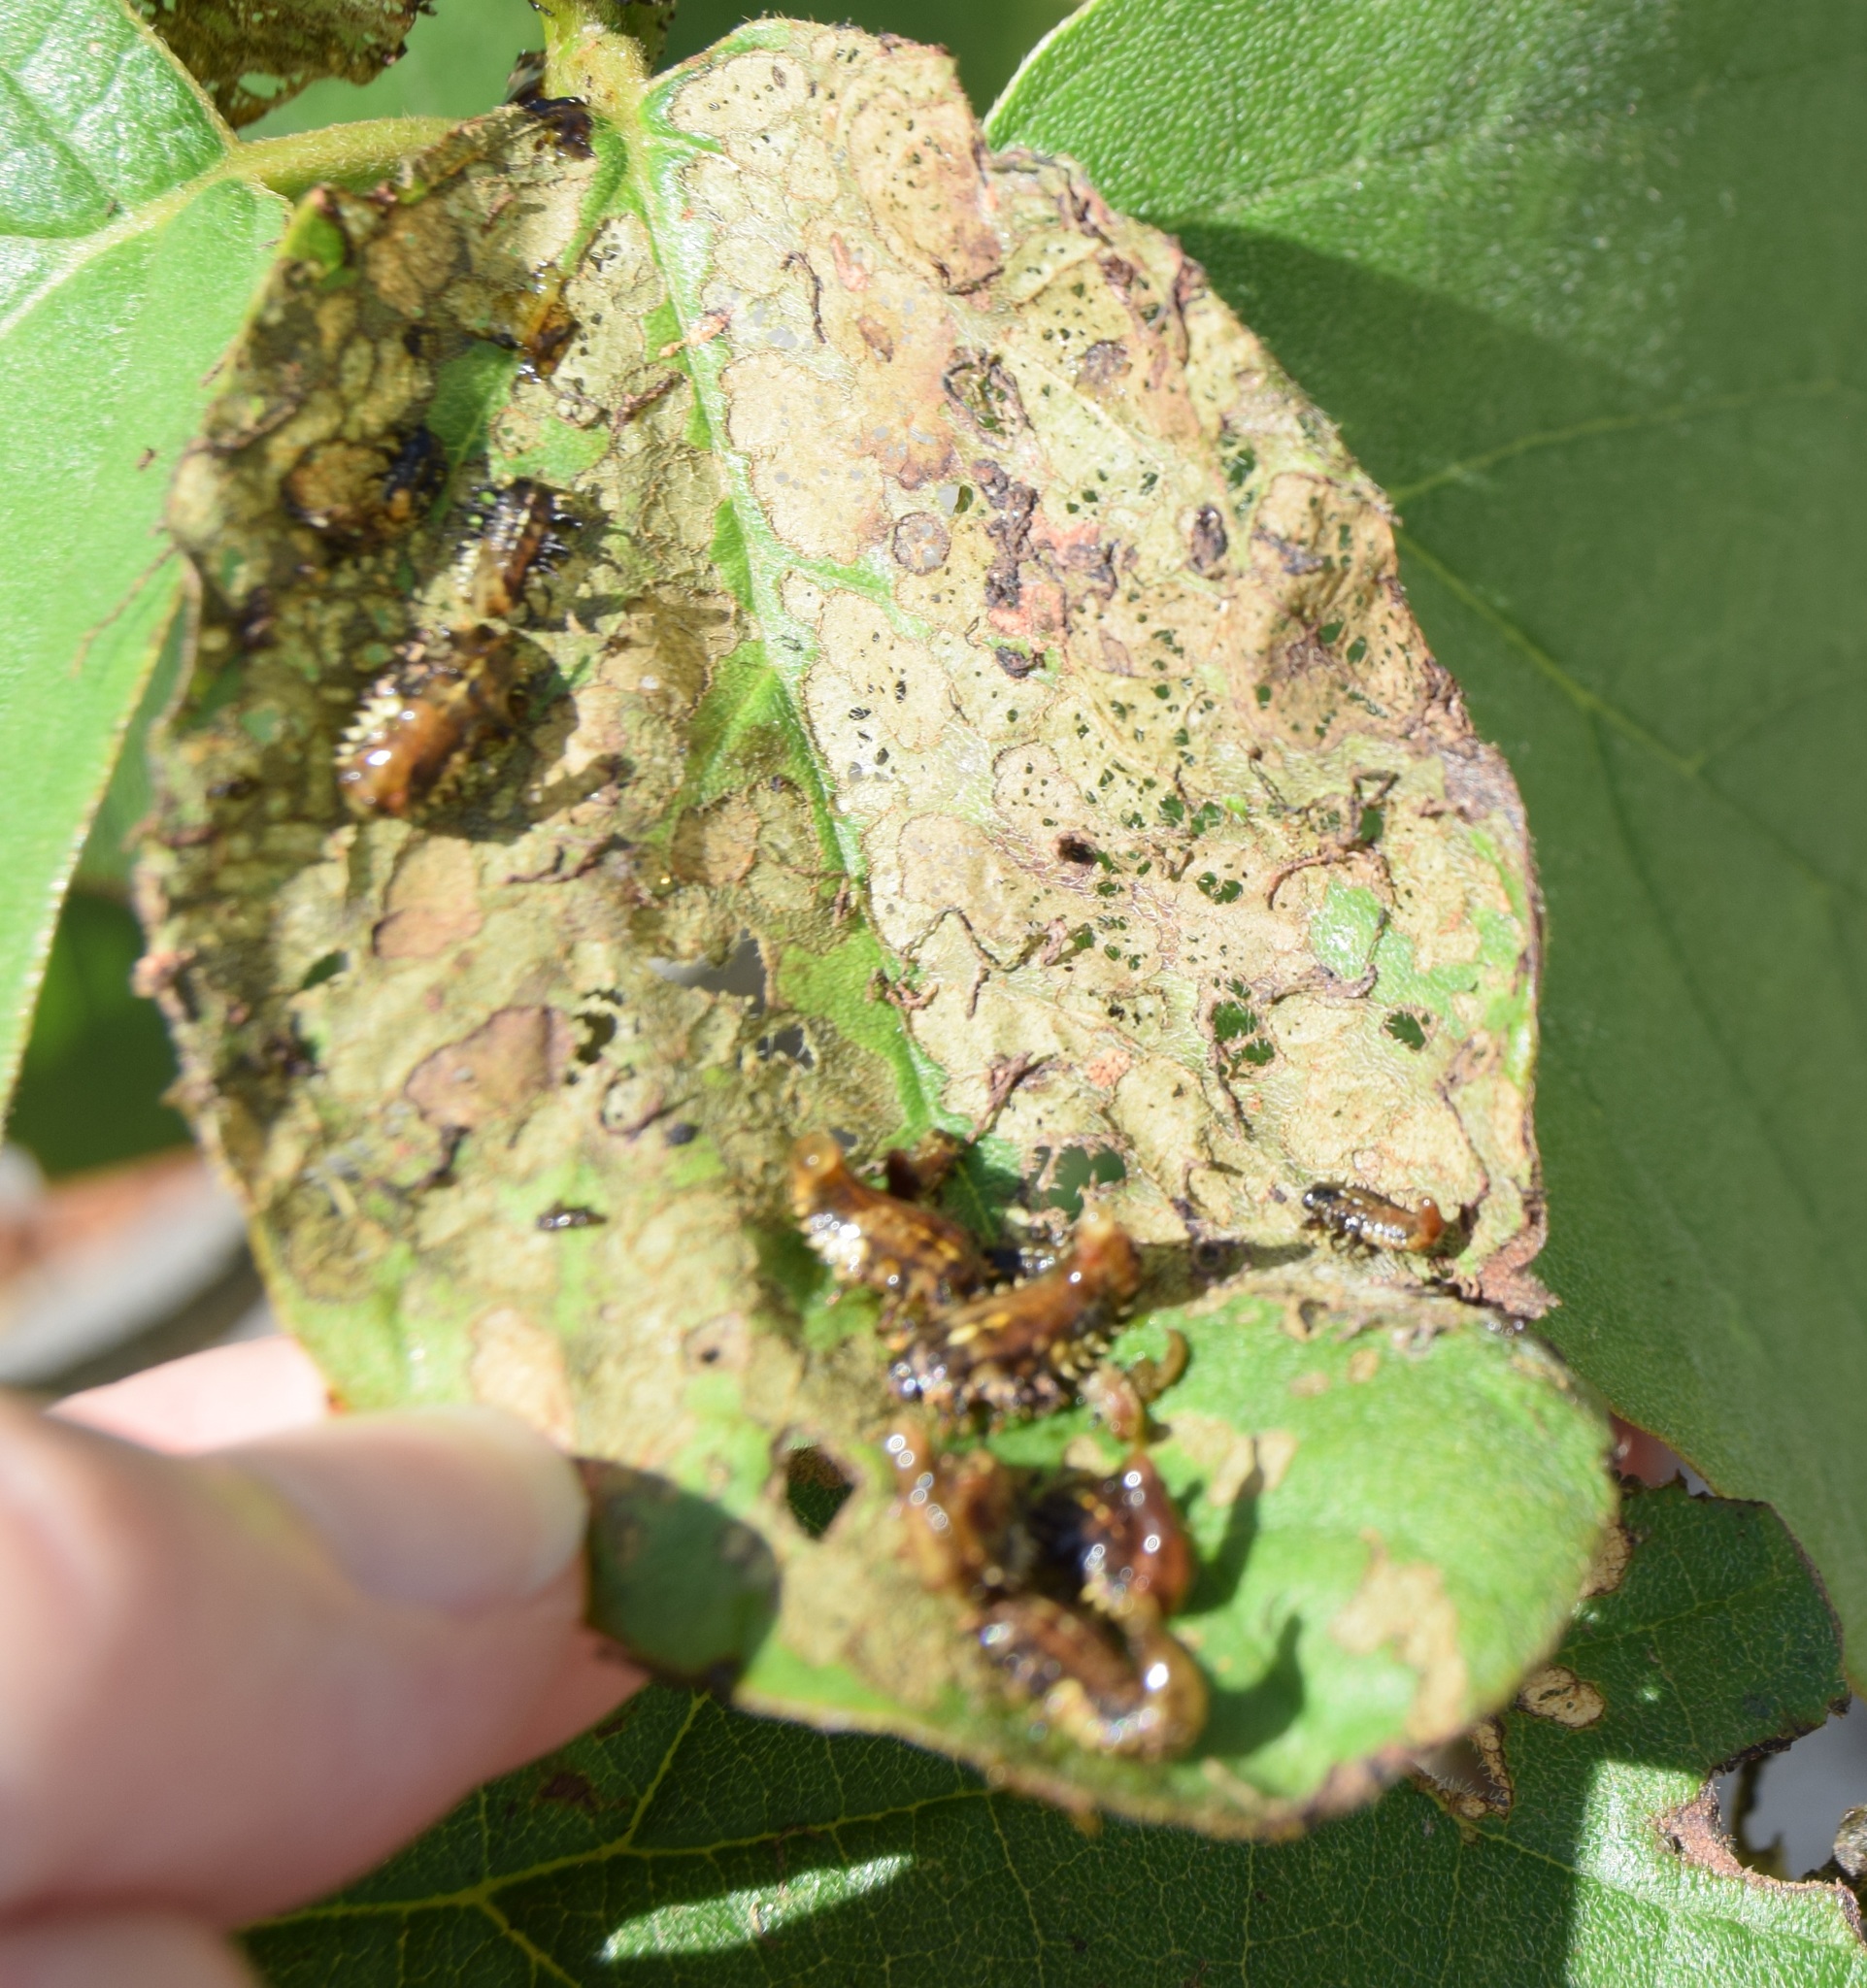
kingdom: Animalia
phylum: Arthropoda
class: Insecta
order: Coleoptera
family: Chrysomelidae
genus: Eurypepla
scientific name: Eurypepla calochroma
